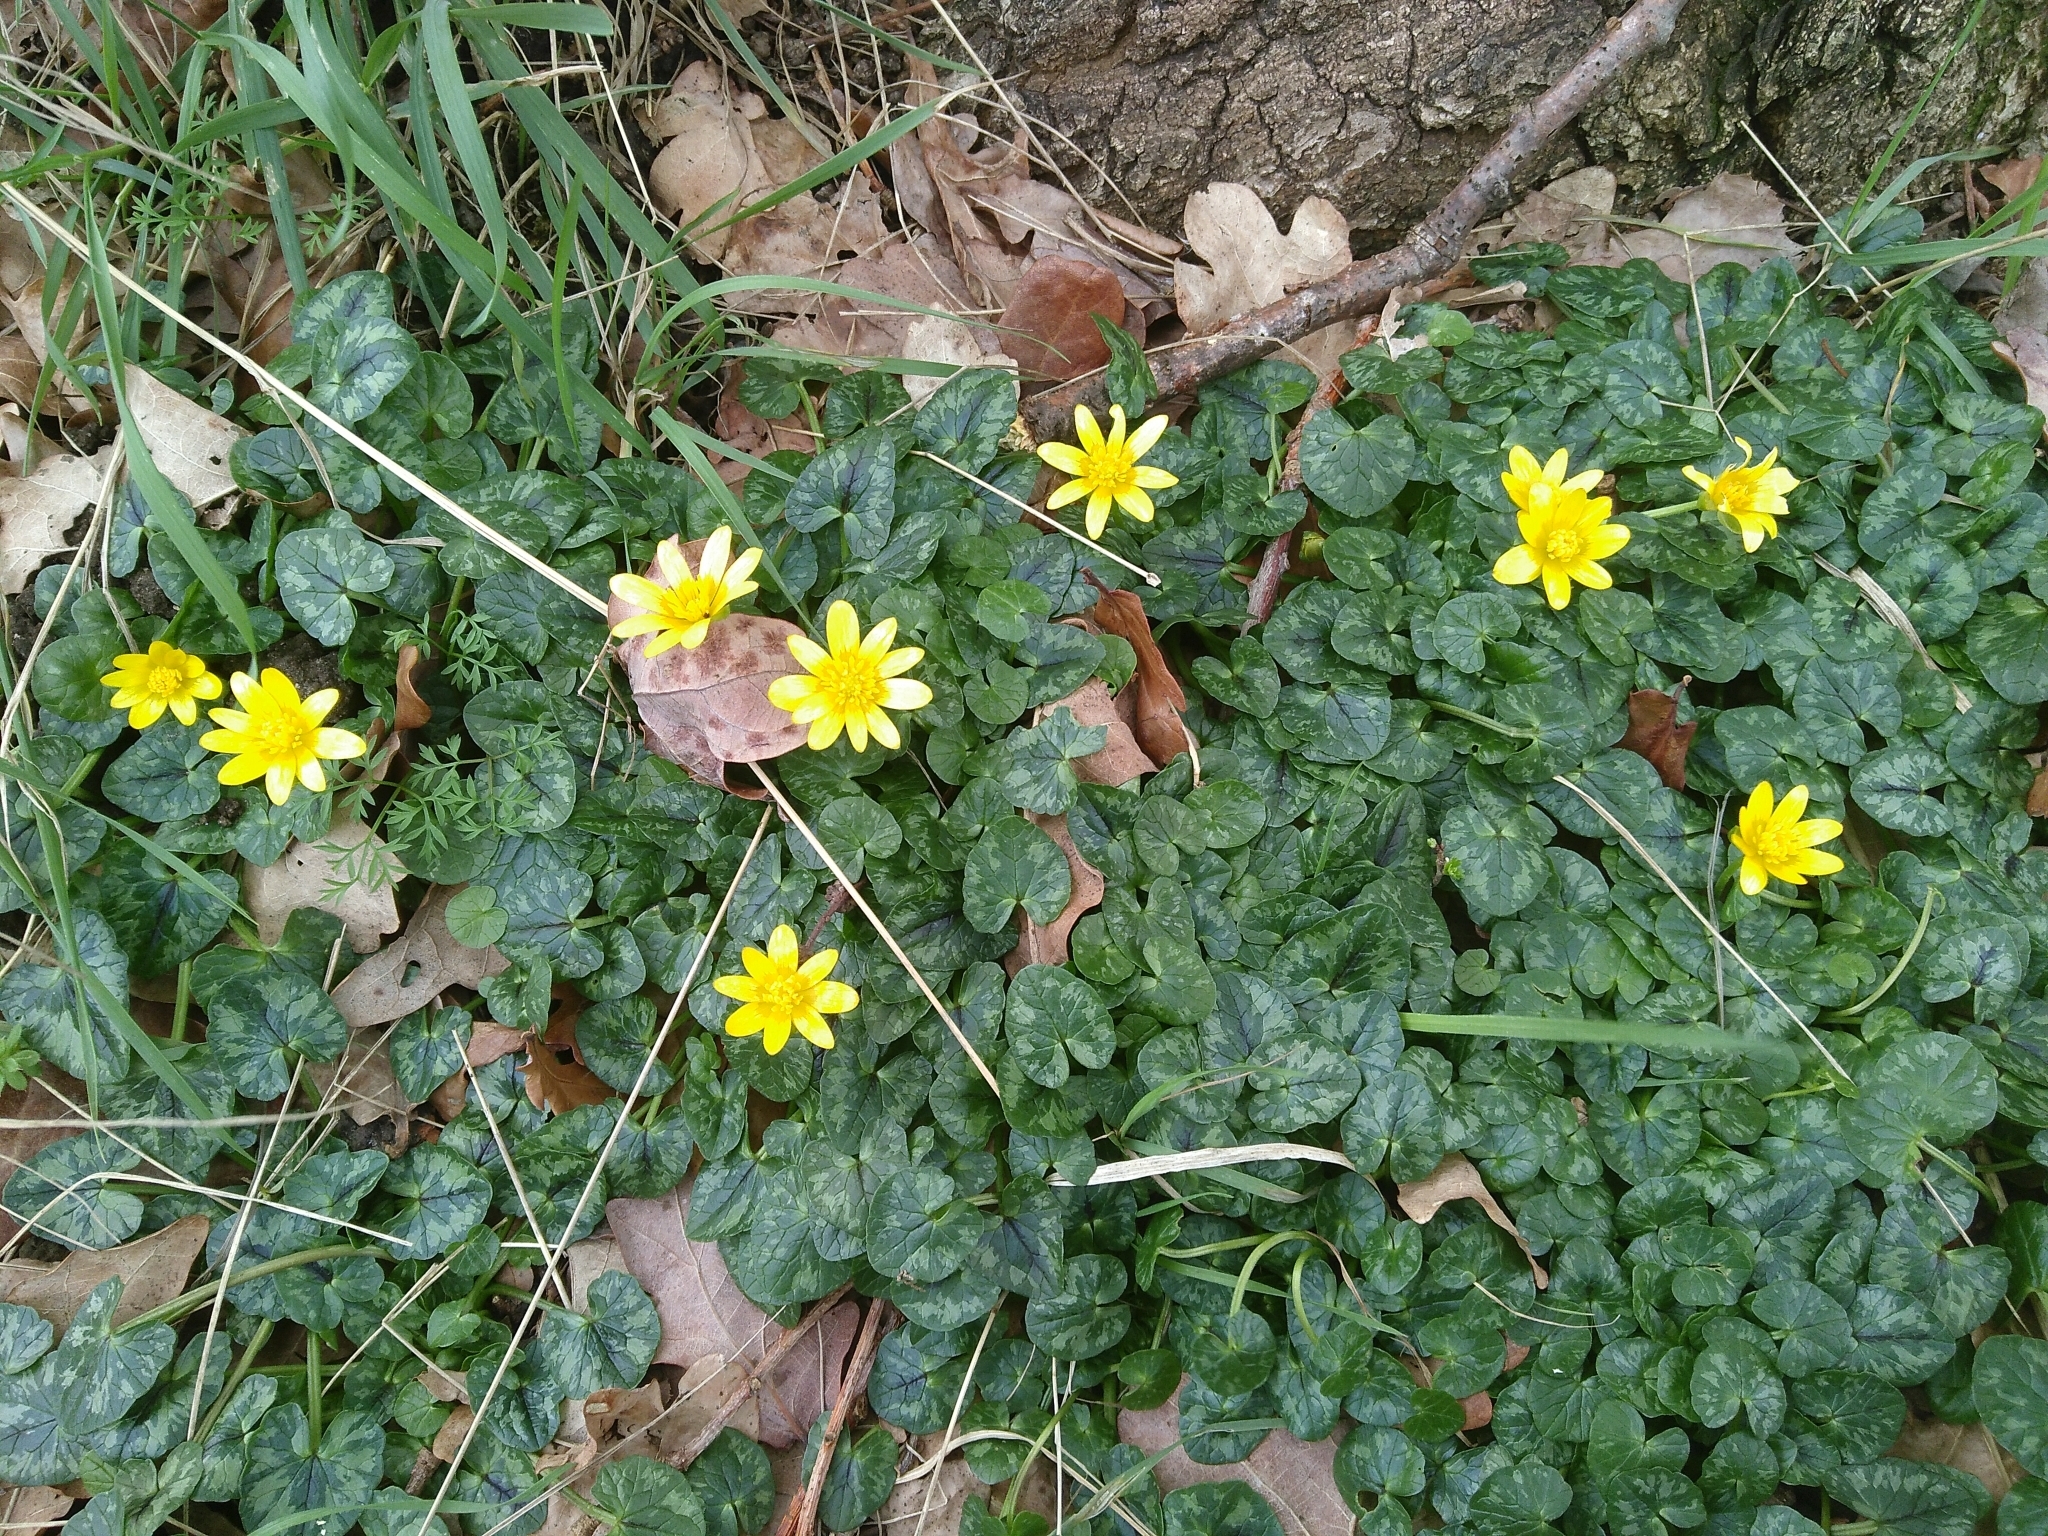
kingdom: Plantae
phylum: Tracheophyta
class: Magnoliopsida
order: Ranunculales
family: Ranunculaceae
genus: Ficaria
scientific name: Ficaria verna
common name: Lesser celandine
